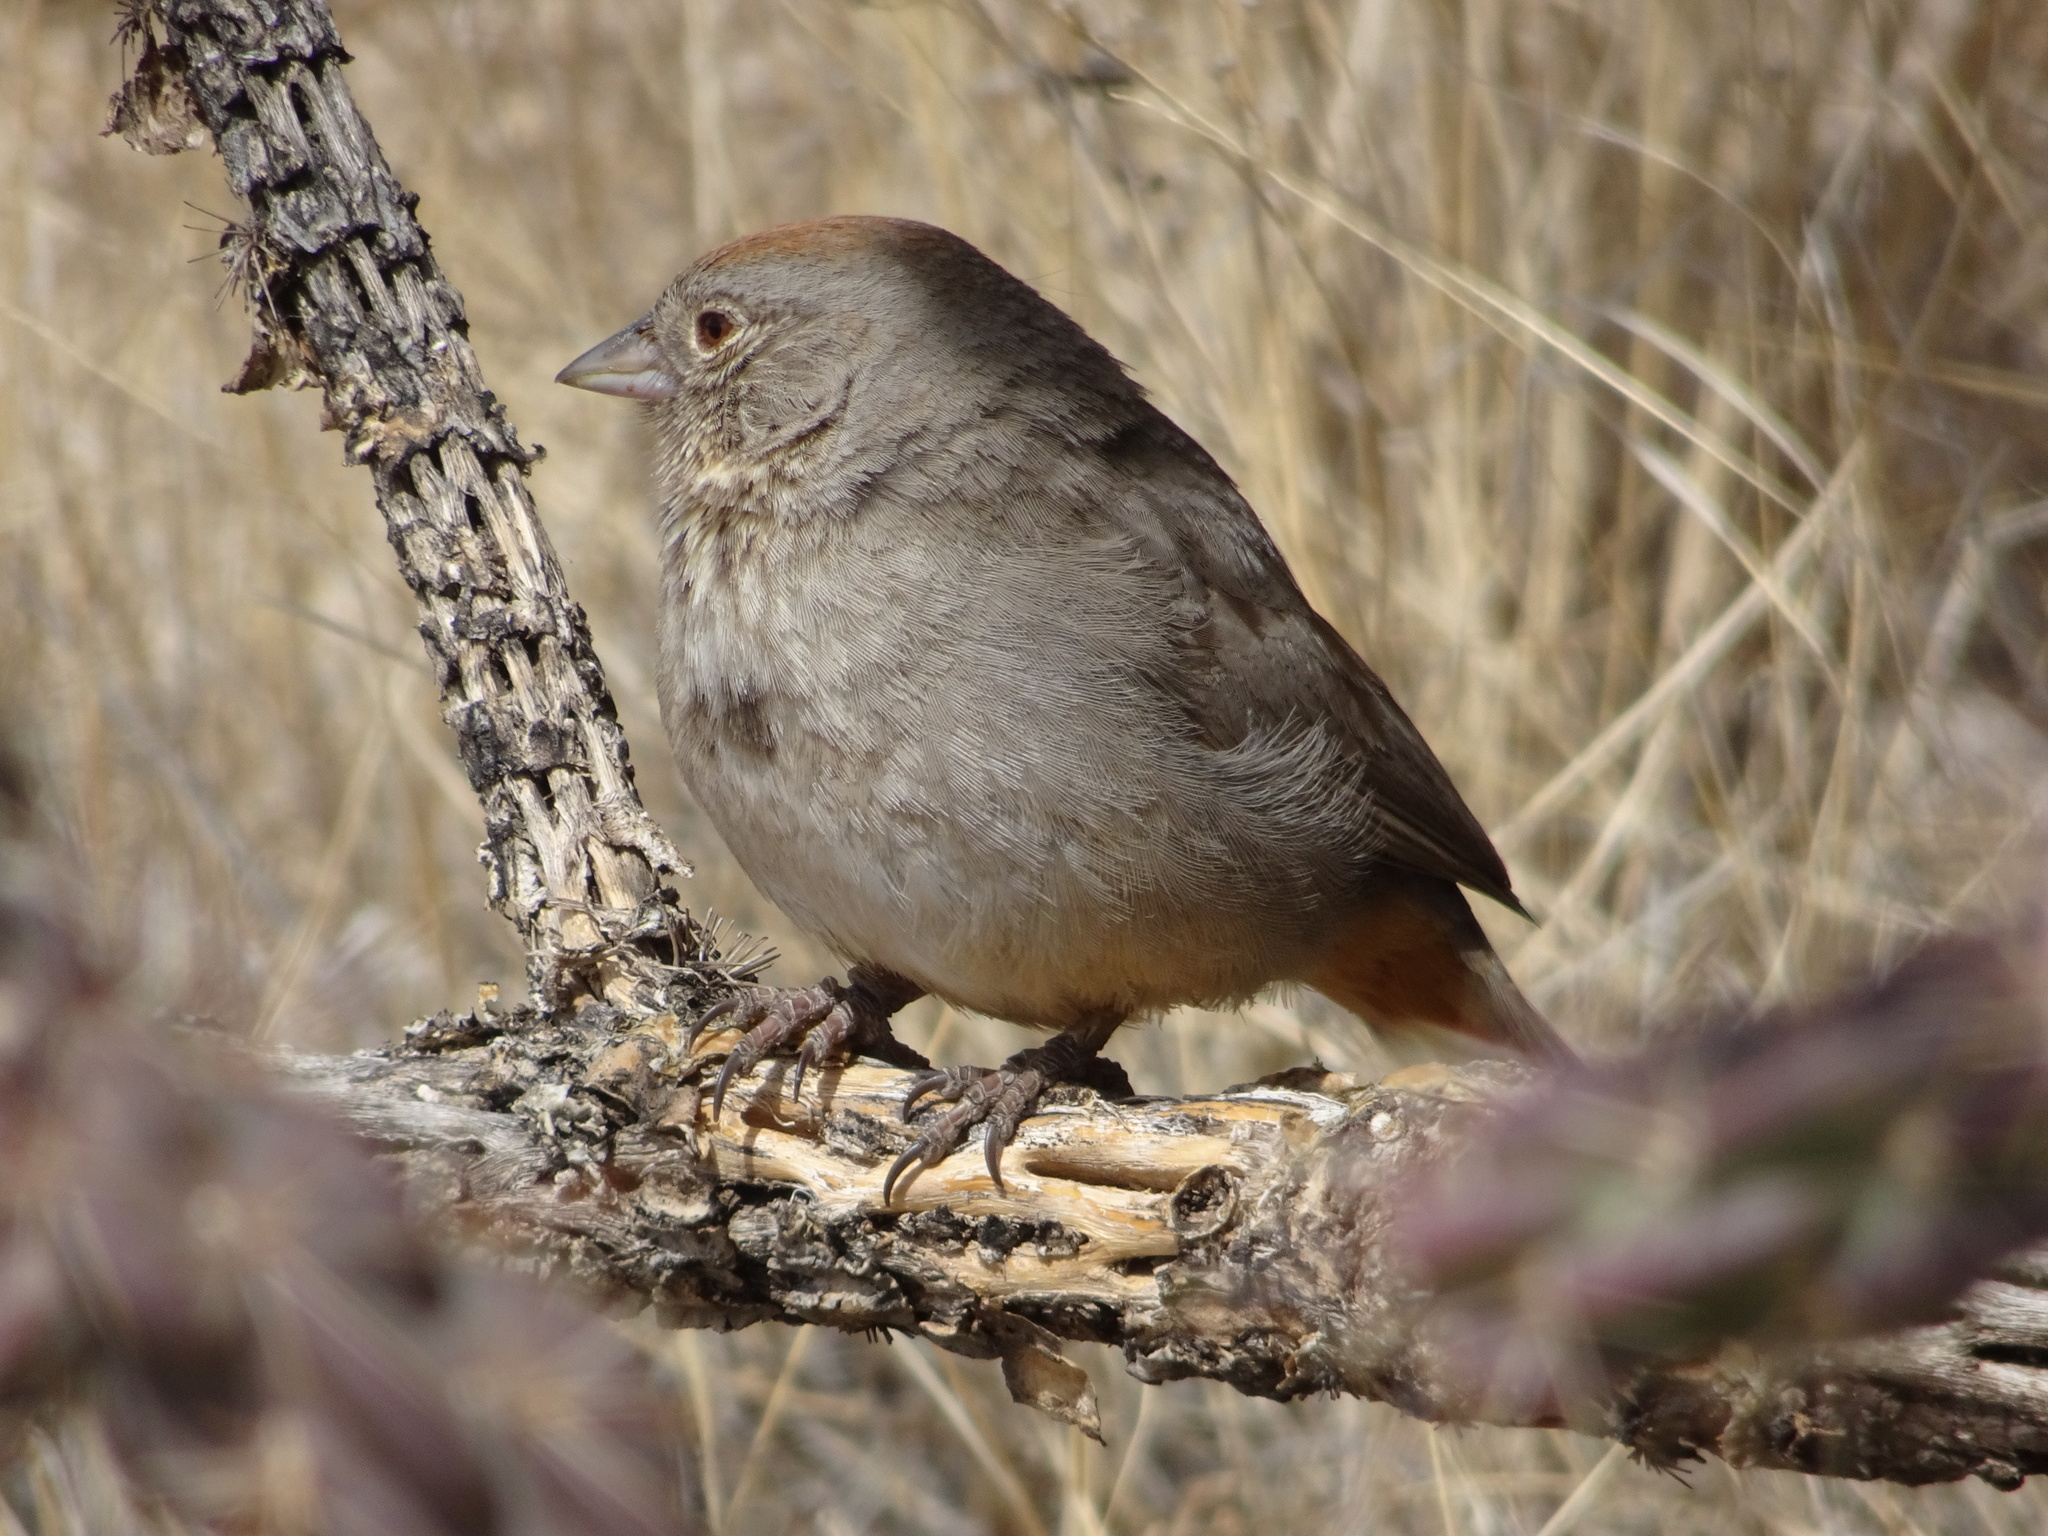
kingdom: Animalia
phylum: Chordata
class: Aves
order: Passeriformes
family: Passerellidae
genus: Melozone
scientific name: Melozone fusca
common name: Canyon towhee
